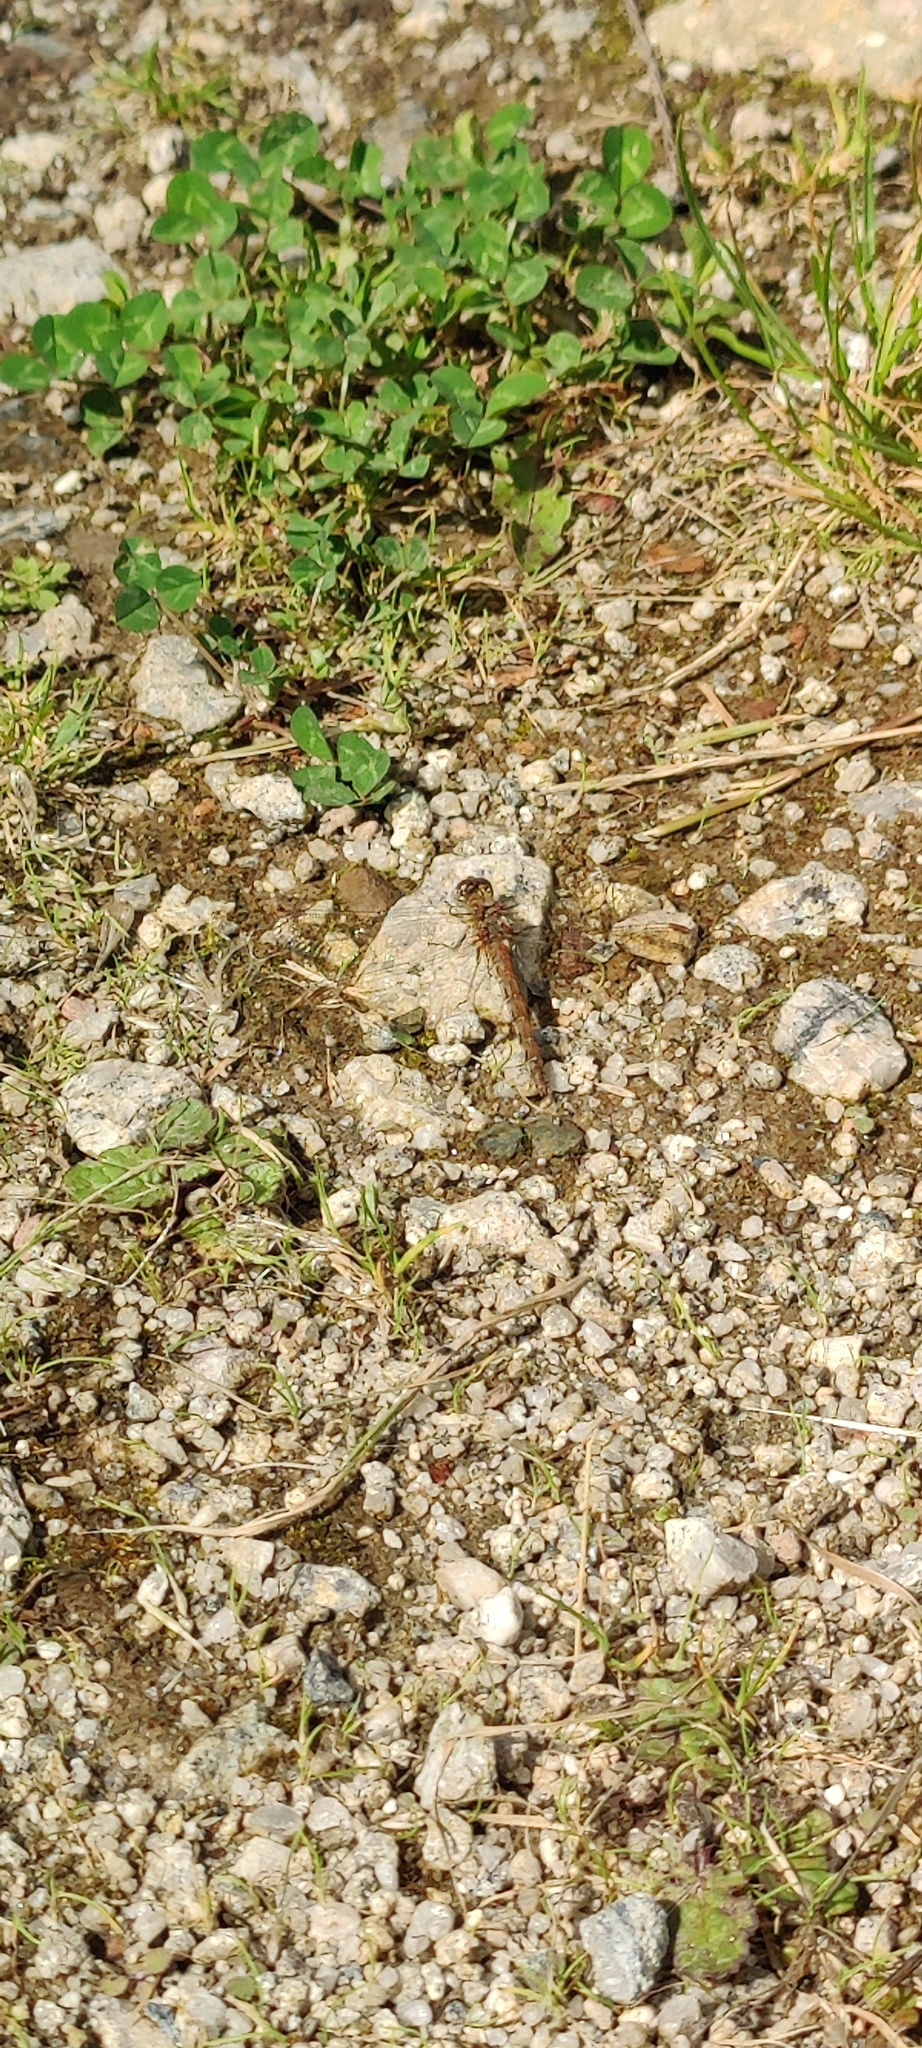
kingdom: Animalia
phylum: Arthropoda
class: Insecta
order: Odonata
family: Libellulidae
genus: Sympetrum
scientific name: Sympetrum striolatum
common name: Common darter
